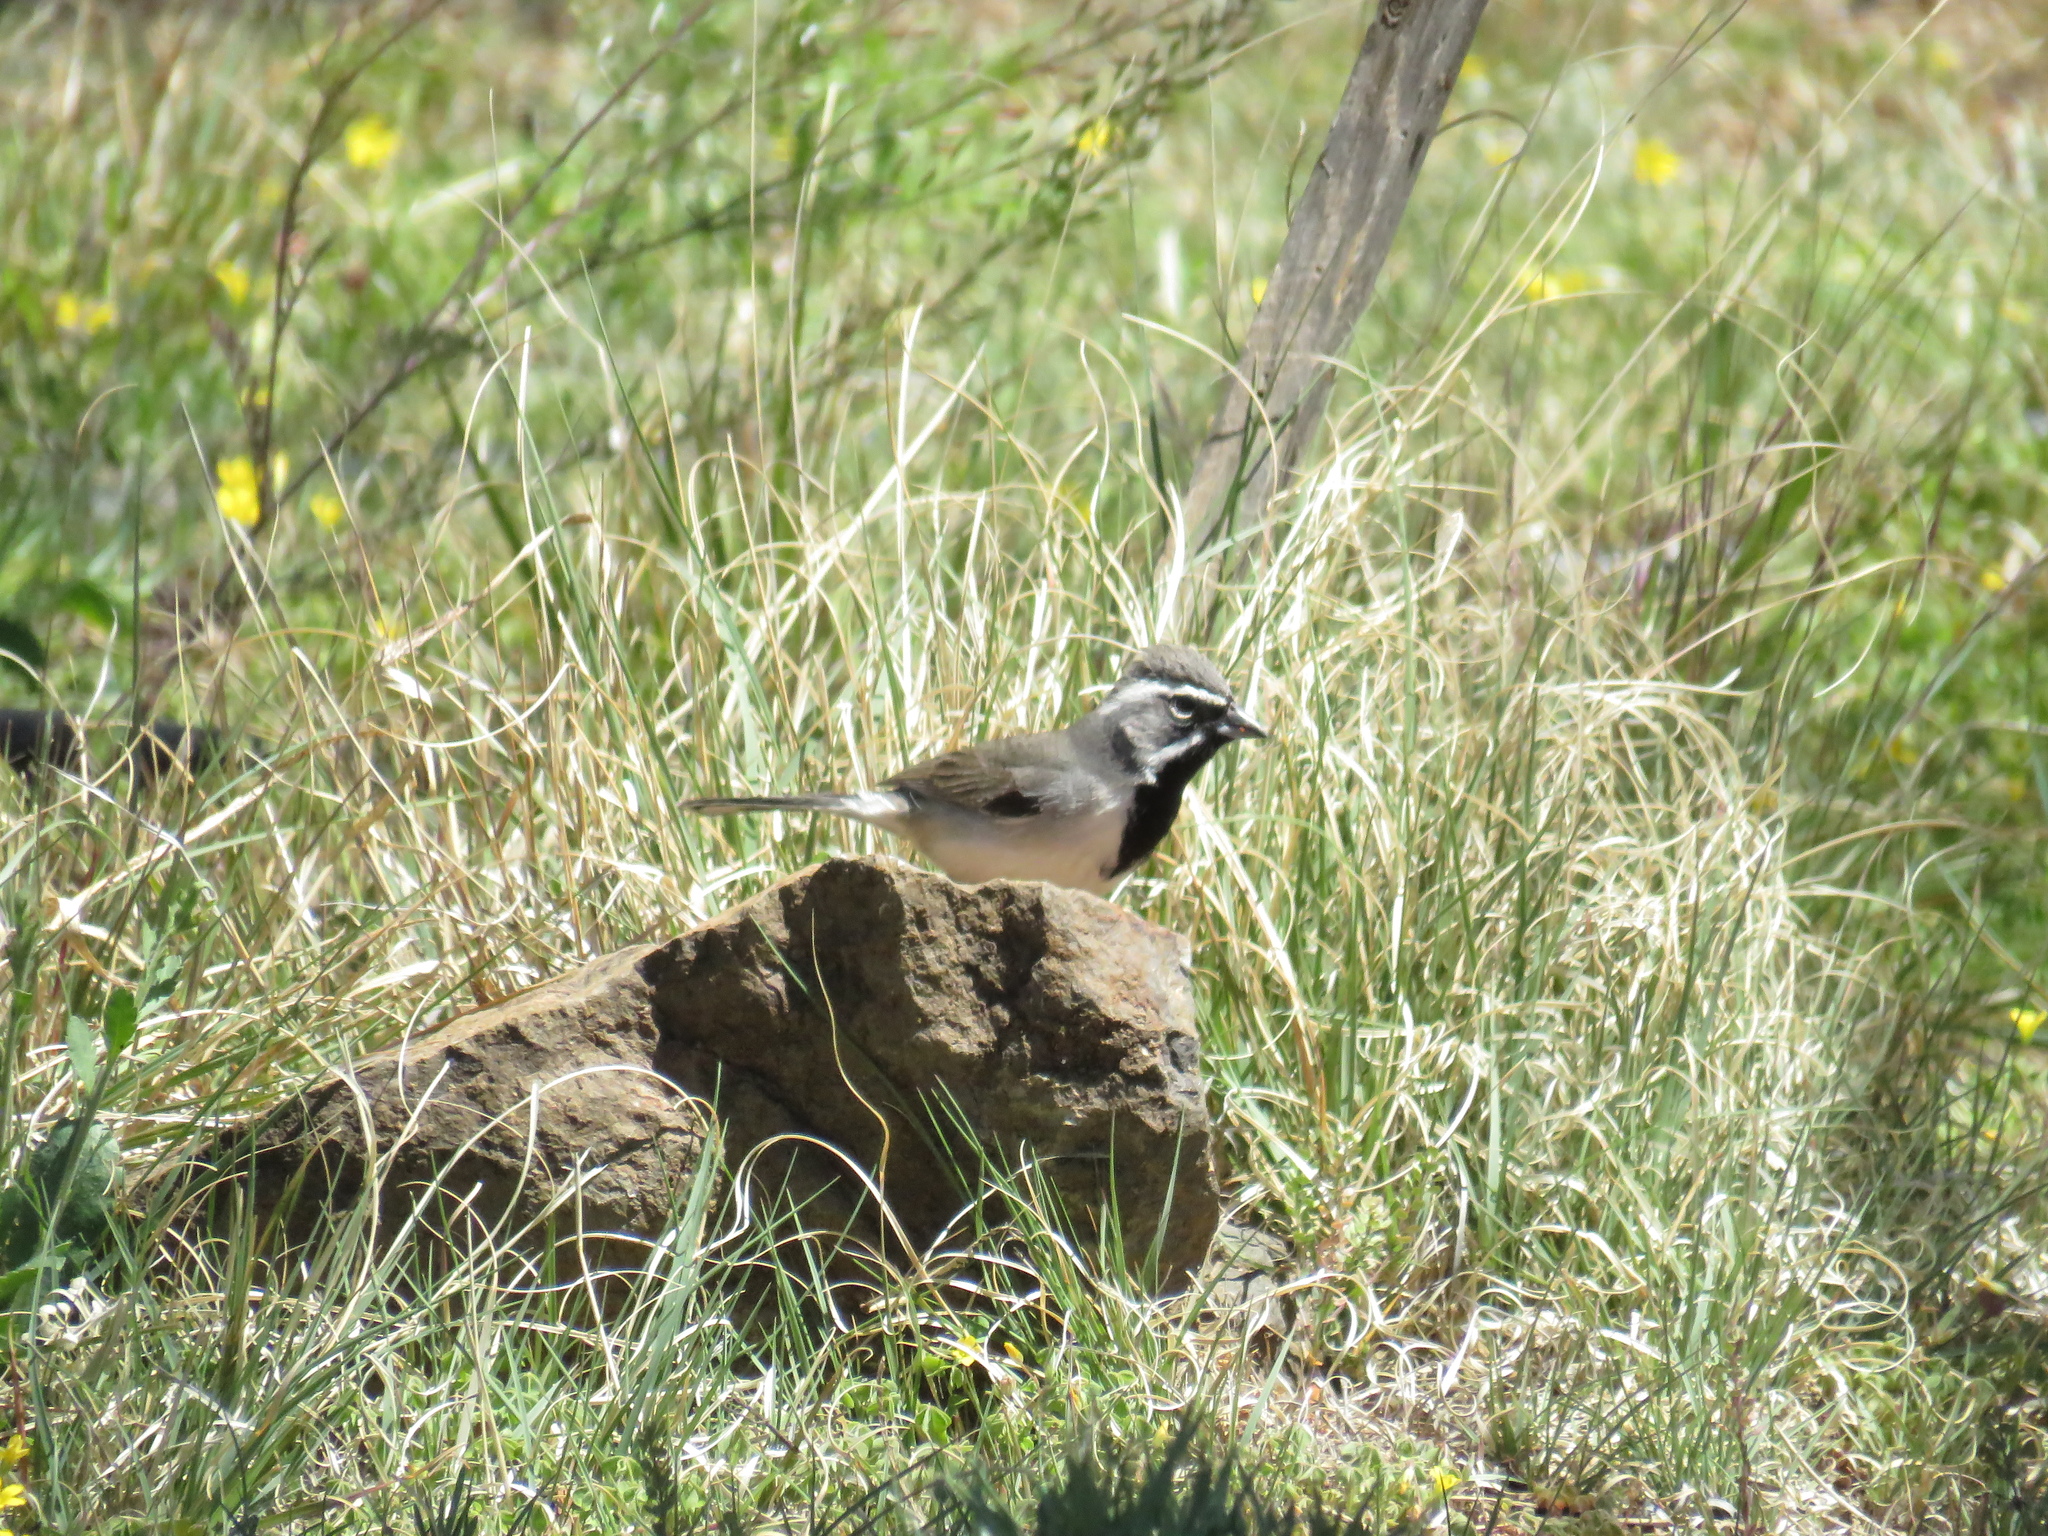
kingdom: Animalia
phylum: Chordata
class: Aves
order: Passeriformes
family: Passerellidae
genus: Amphispiza
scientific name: Amphispiza bilineata
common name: Black-throated sparrow
